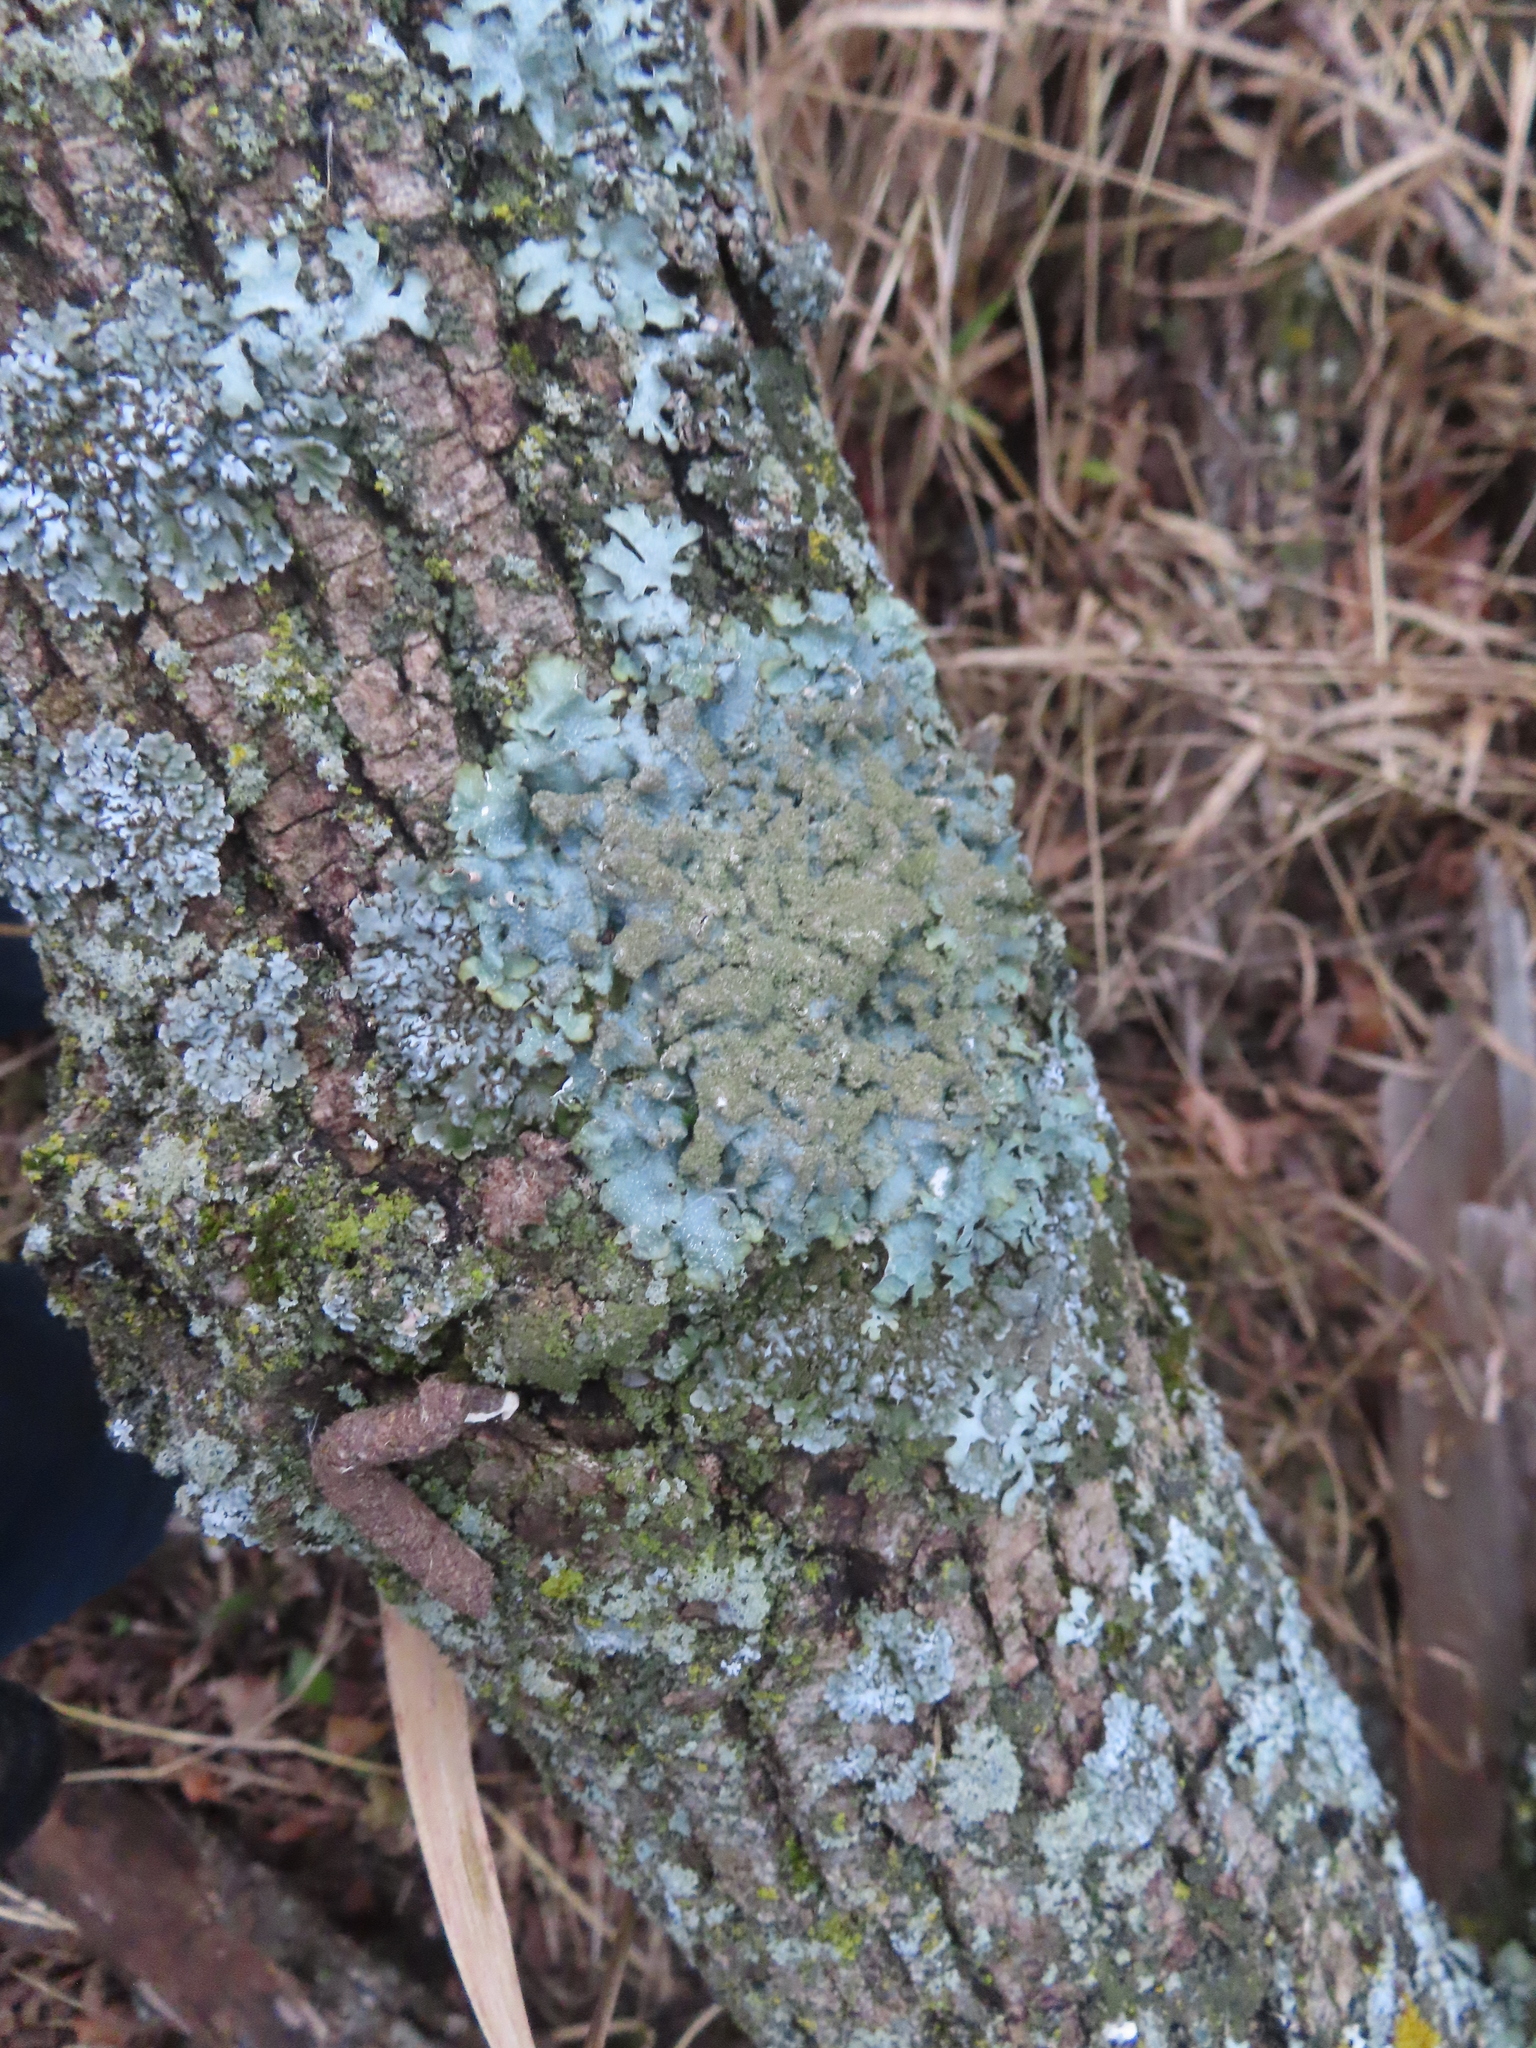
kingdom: Fungi
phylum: Ascomycota
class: Lecanoromycetes
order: Lecanorales
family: Parmeliaceae
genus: Punctelia
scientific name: Punctelia rudecta
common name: Rough speckled shield lichen
